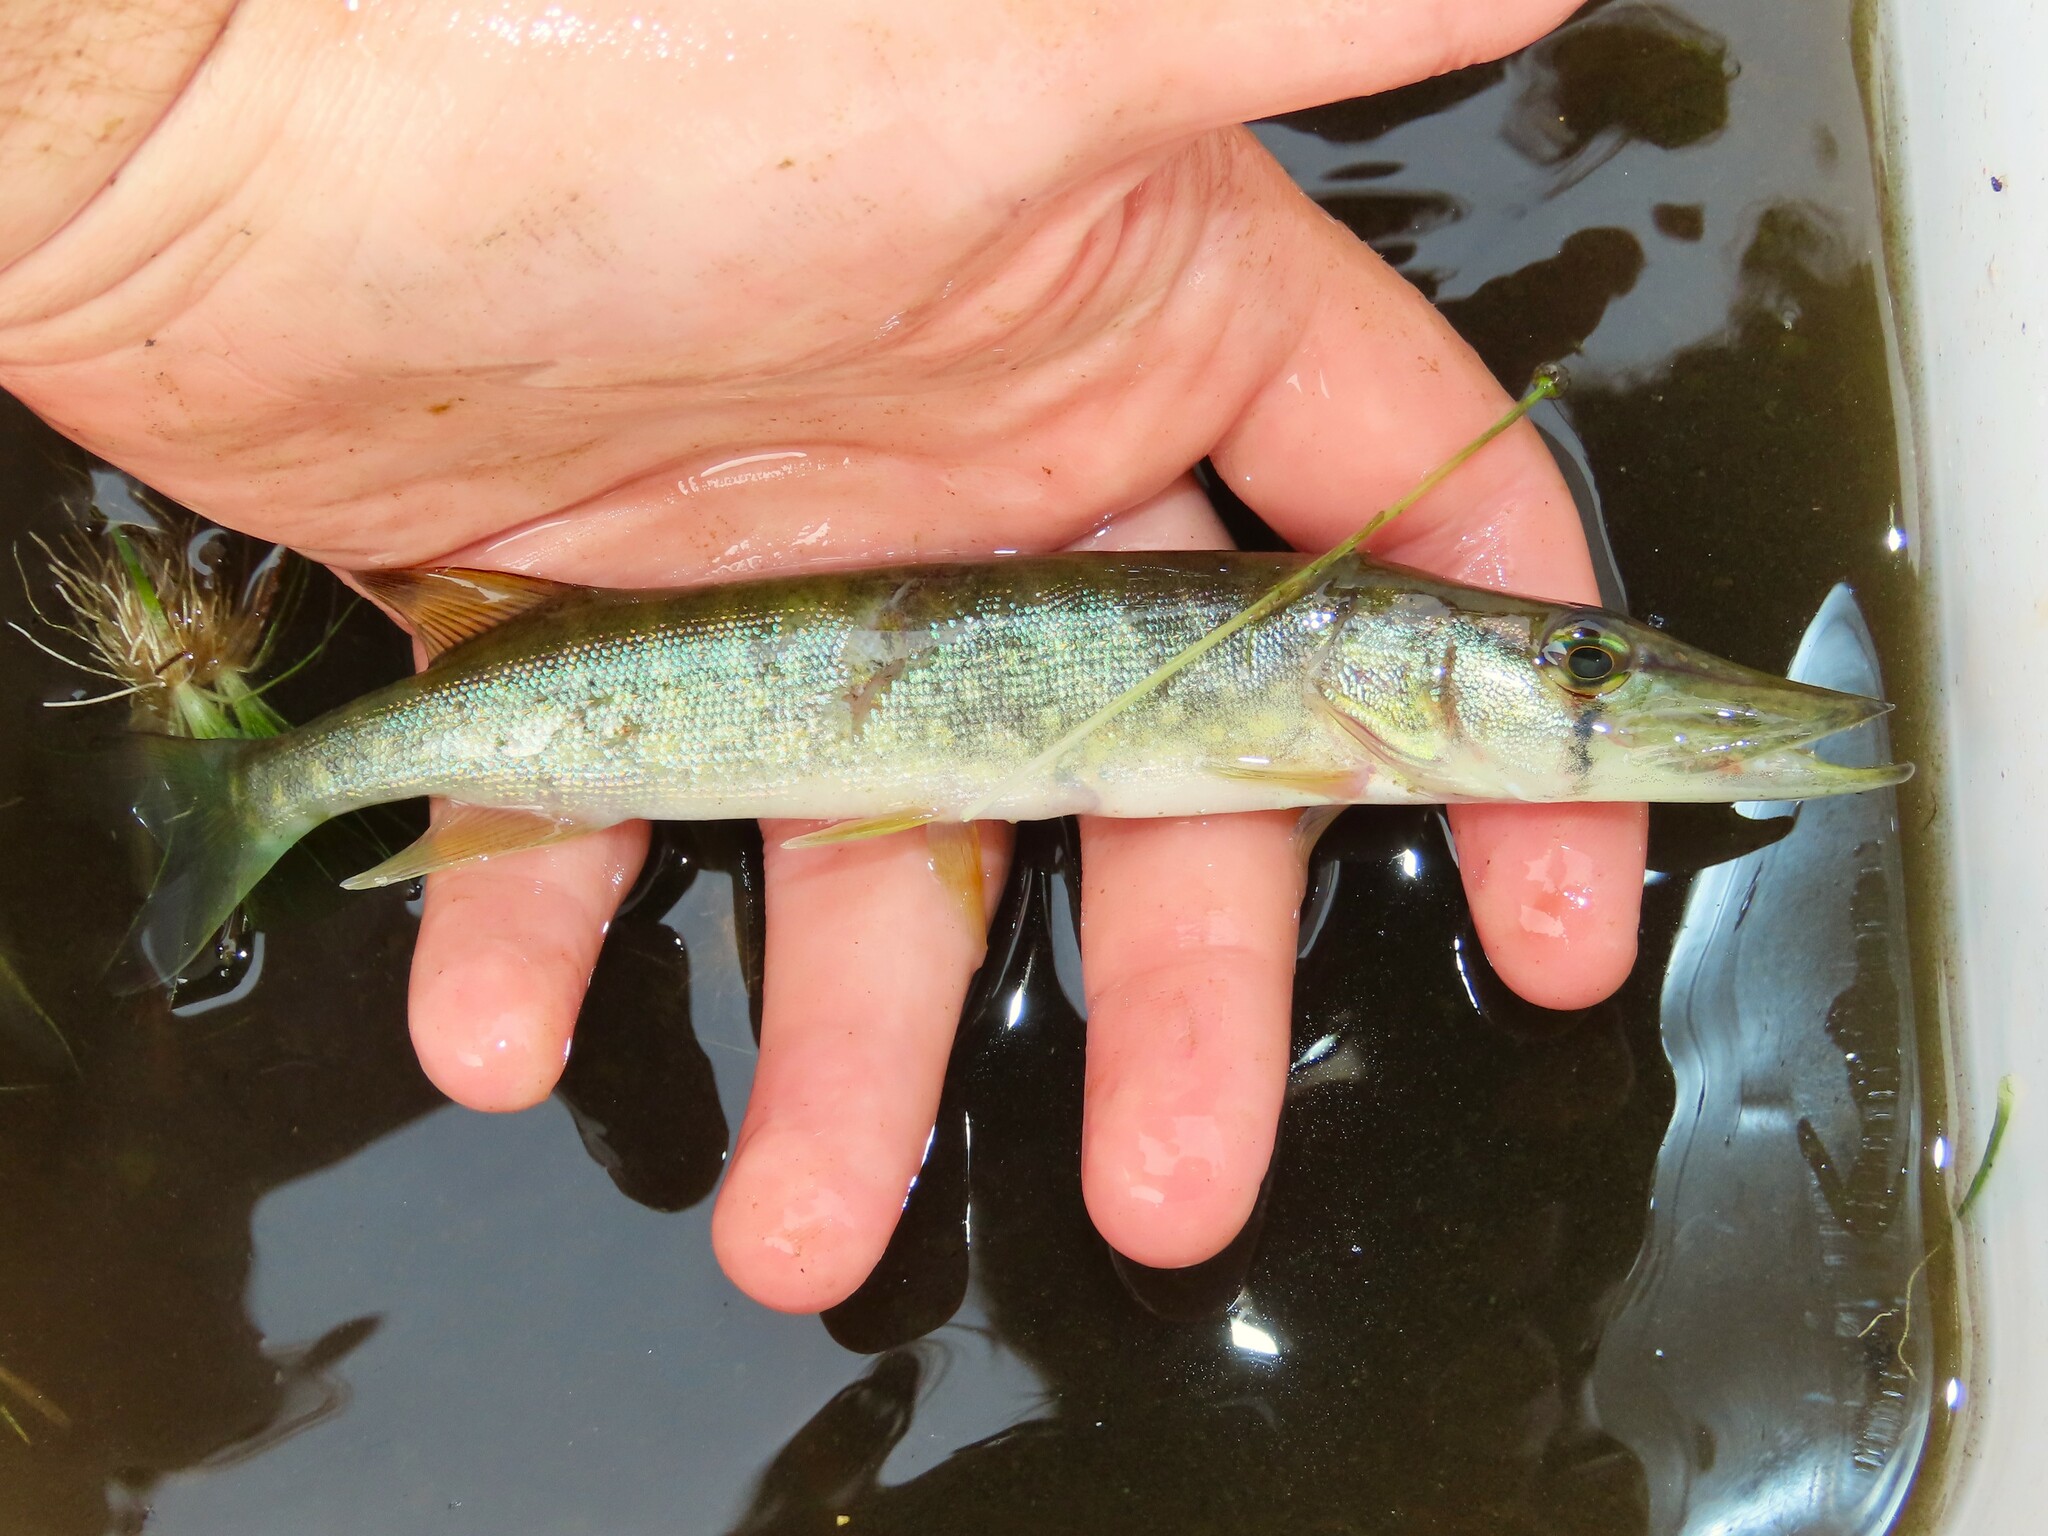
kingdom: Animalia
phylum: Chordata
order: Esociformes
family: Esocidae
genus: Esox
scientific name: Esox niger
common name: Chain pickerel
